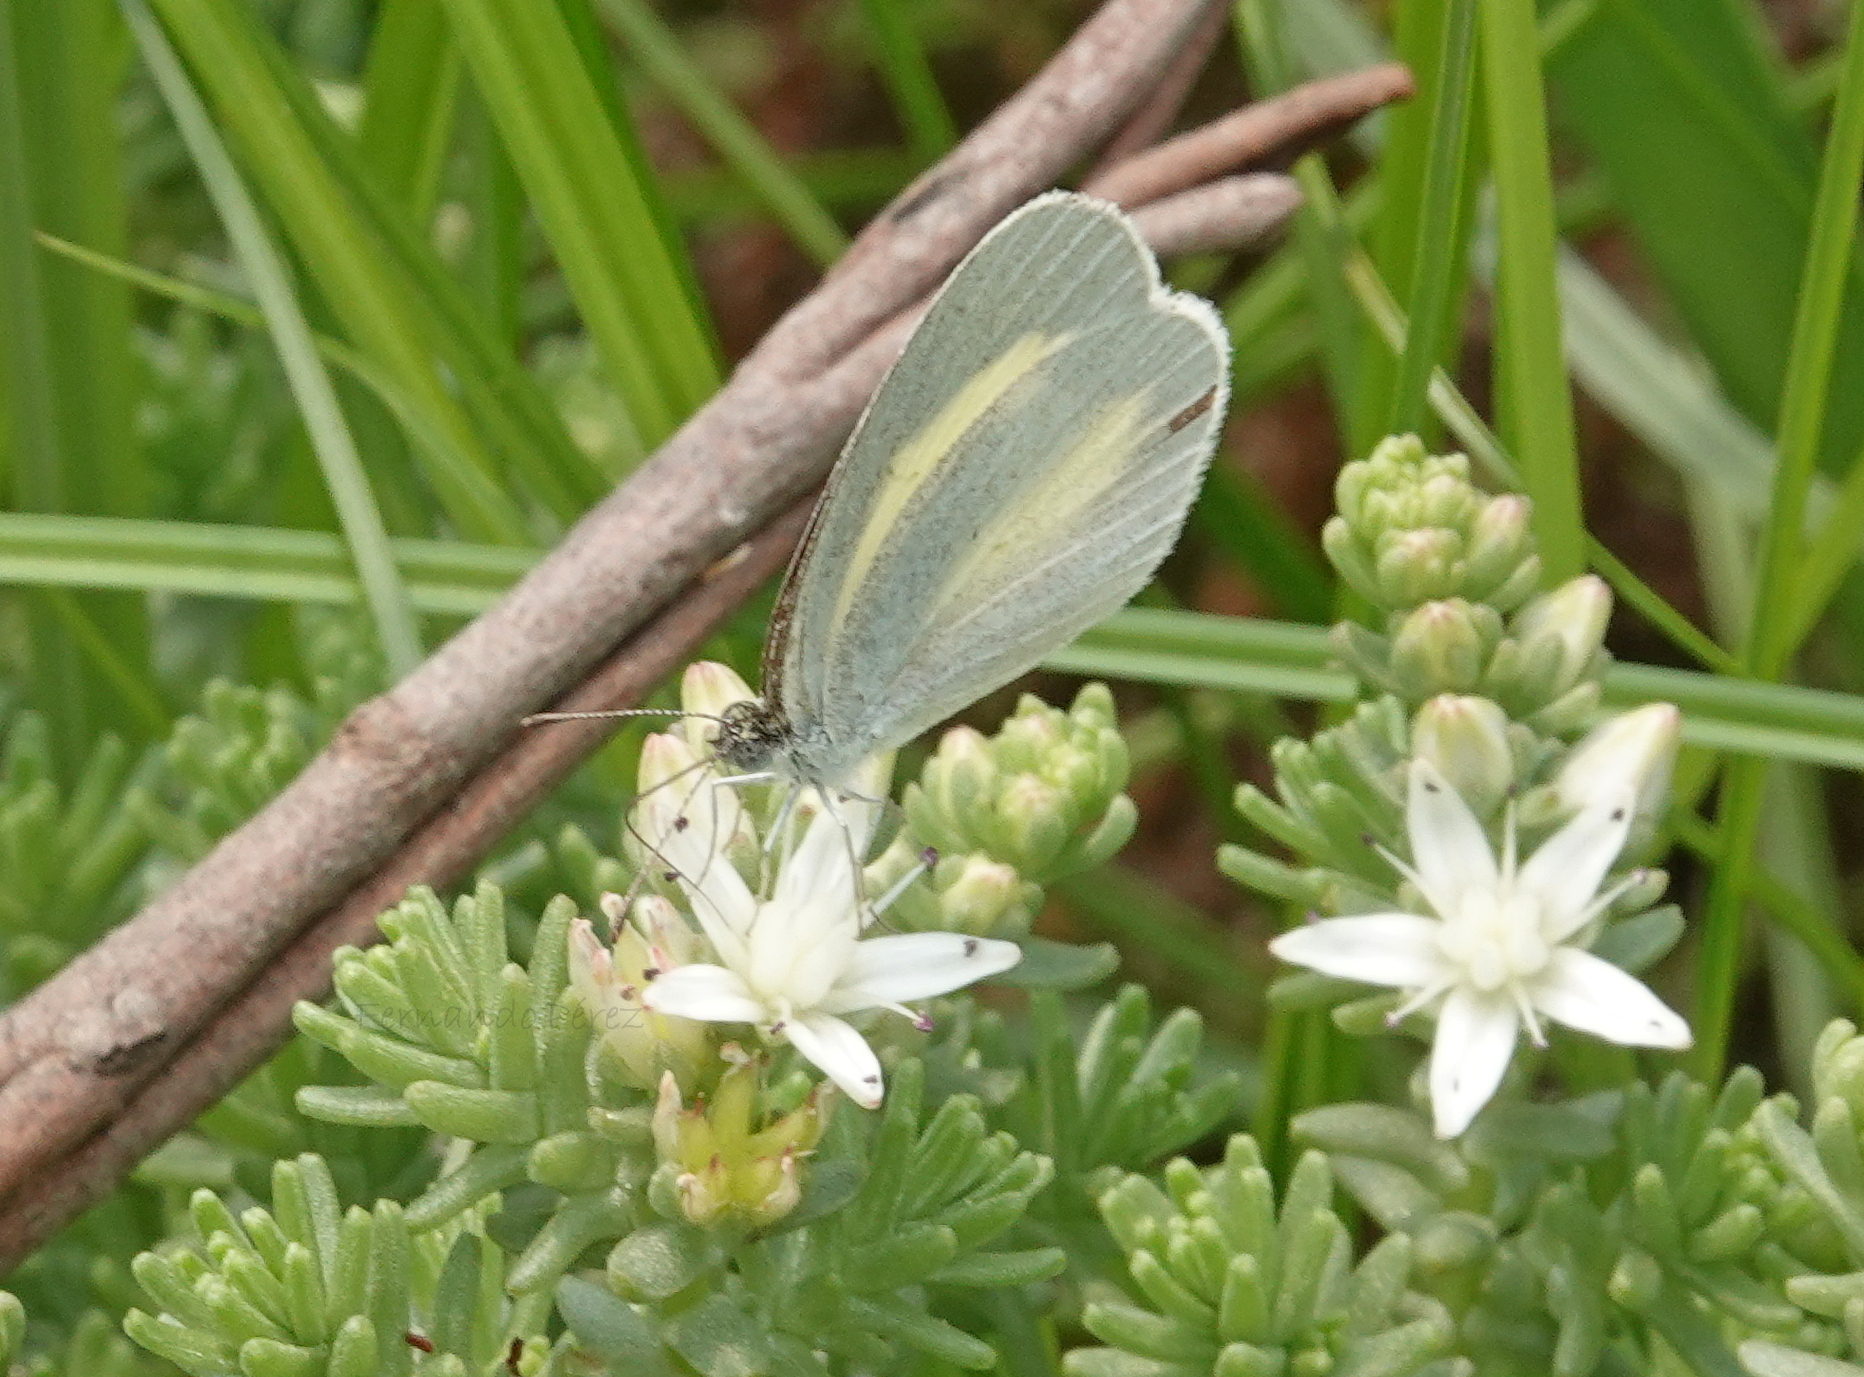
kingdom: Animalia
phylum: Arthropoda
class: Insecta
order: Lepidoptera
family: Pieridae
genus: Eurema
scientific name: Eurema daira
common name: Barred sulphur
